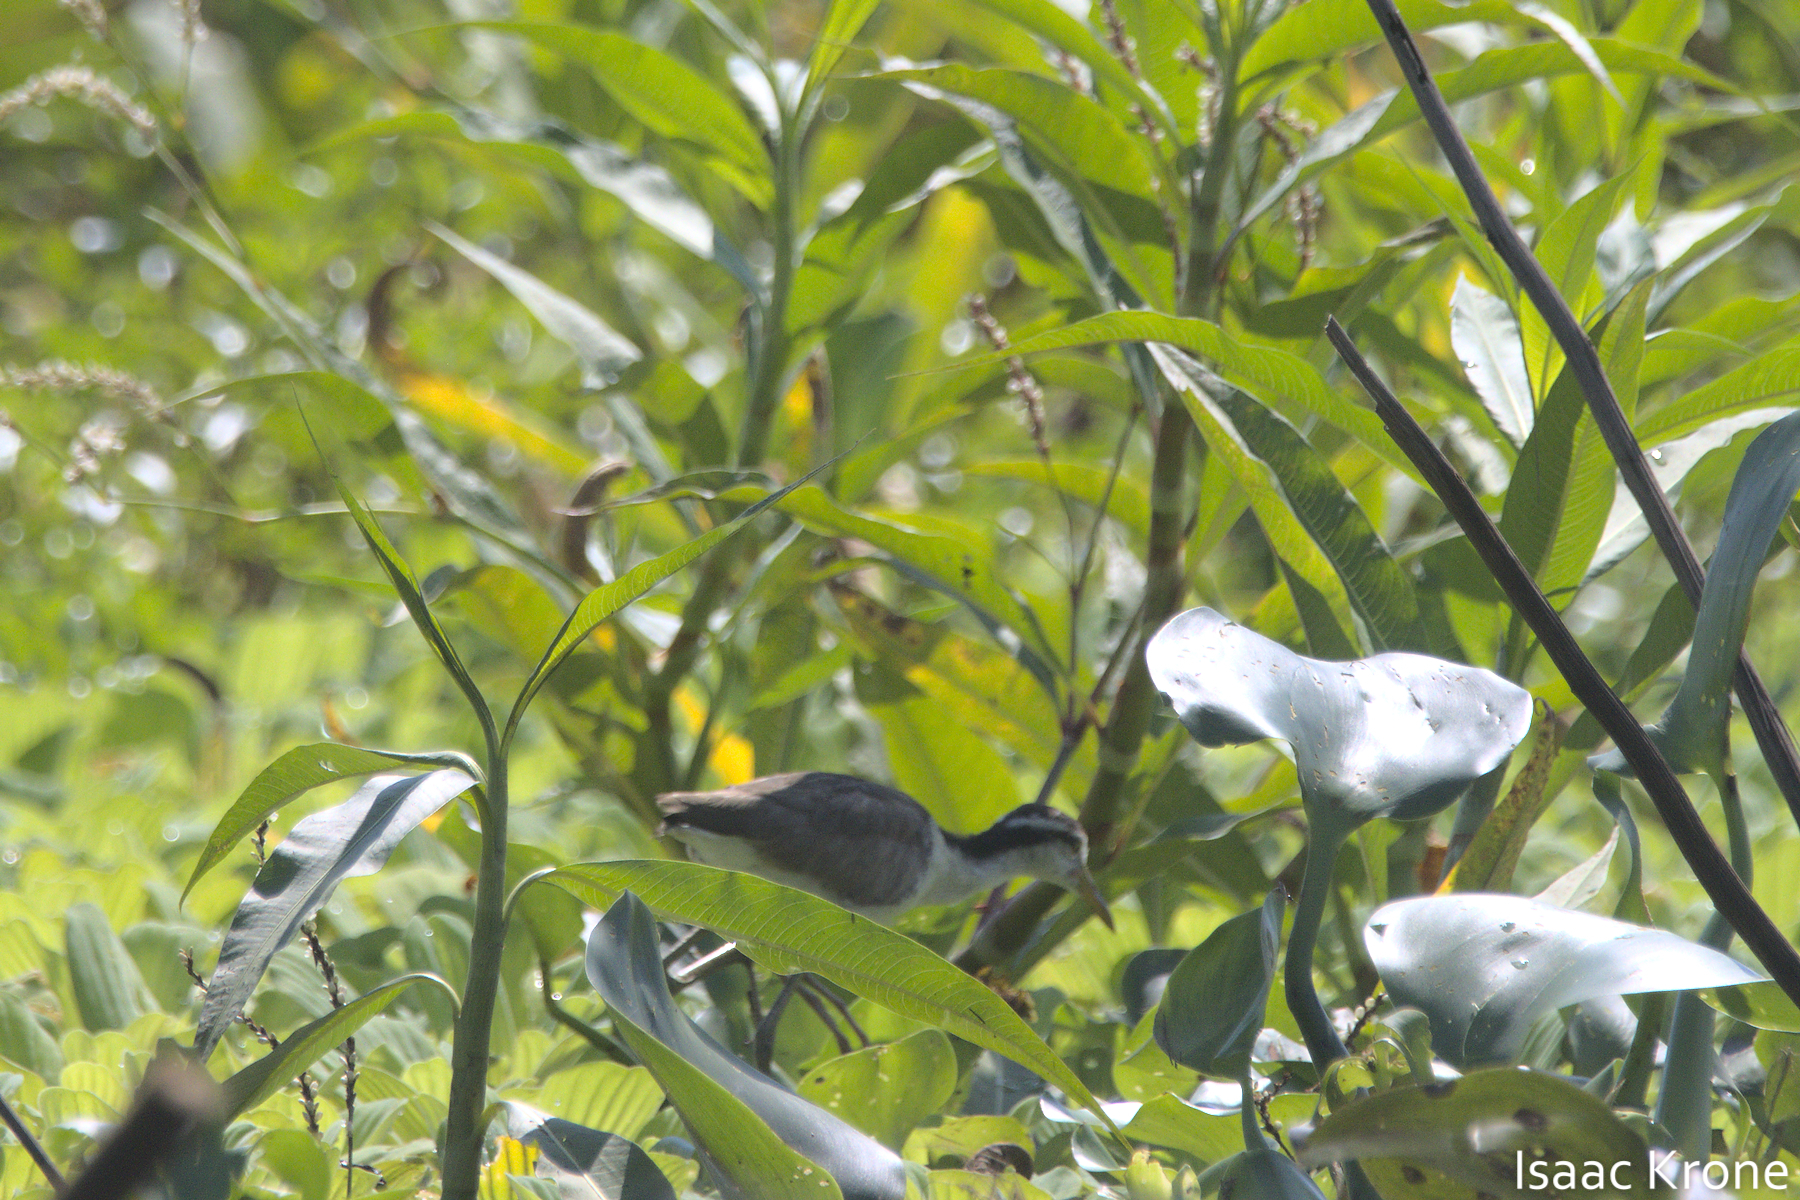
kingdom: Animalia
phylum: Chordata
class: Aves
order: Charadriiformes
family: Jacanidae
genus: Jacana
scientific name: Jacana jacana
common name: Wattled jacana
